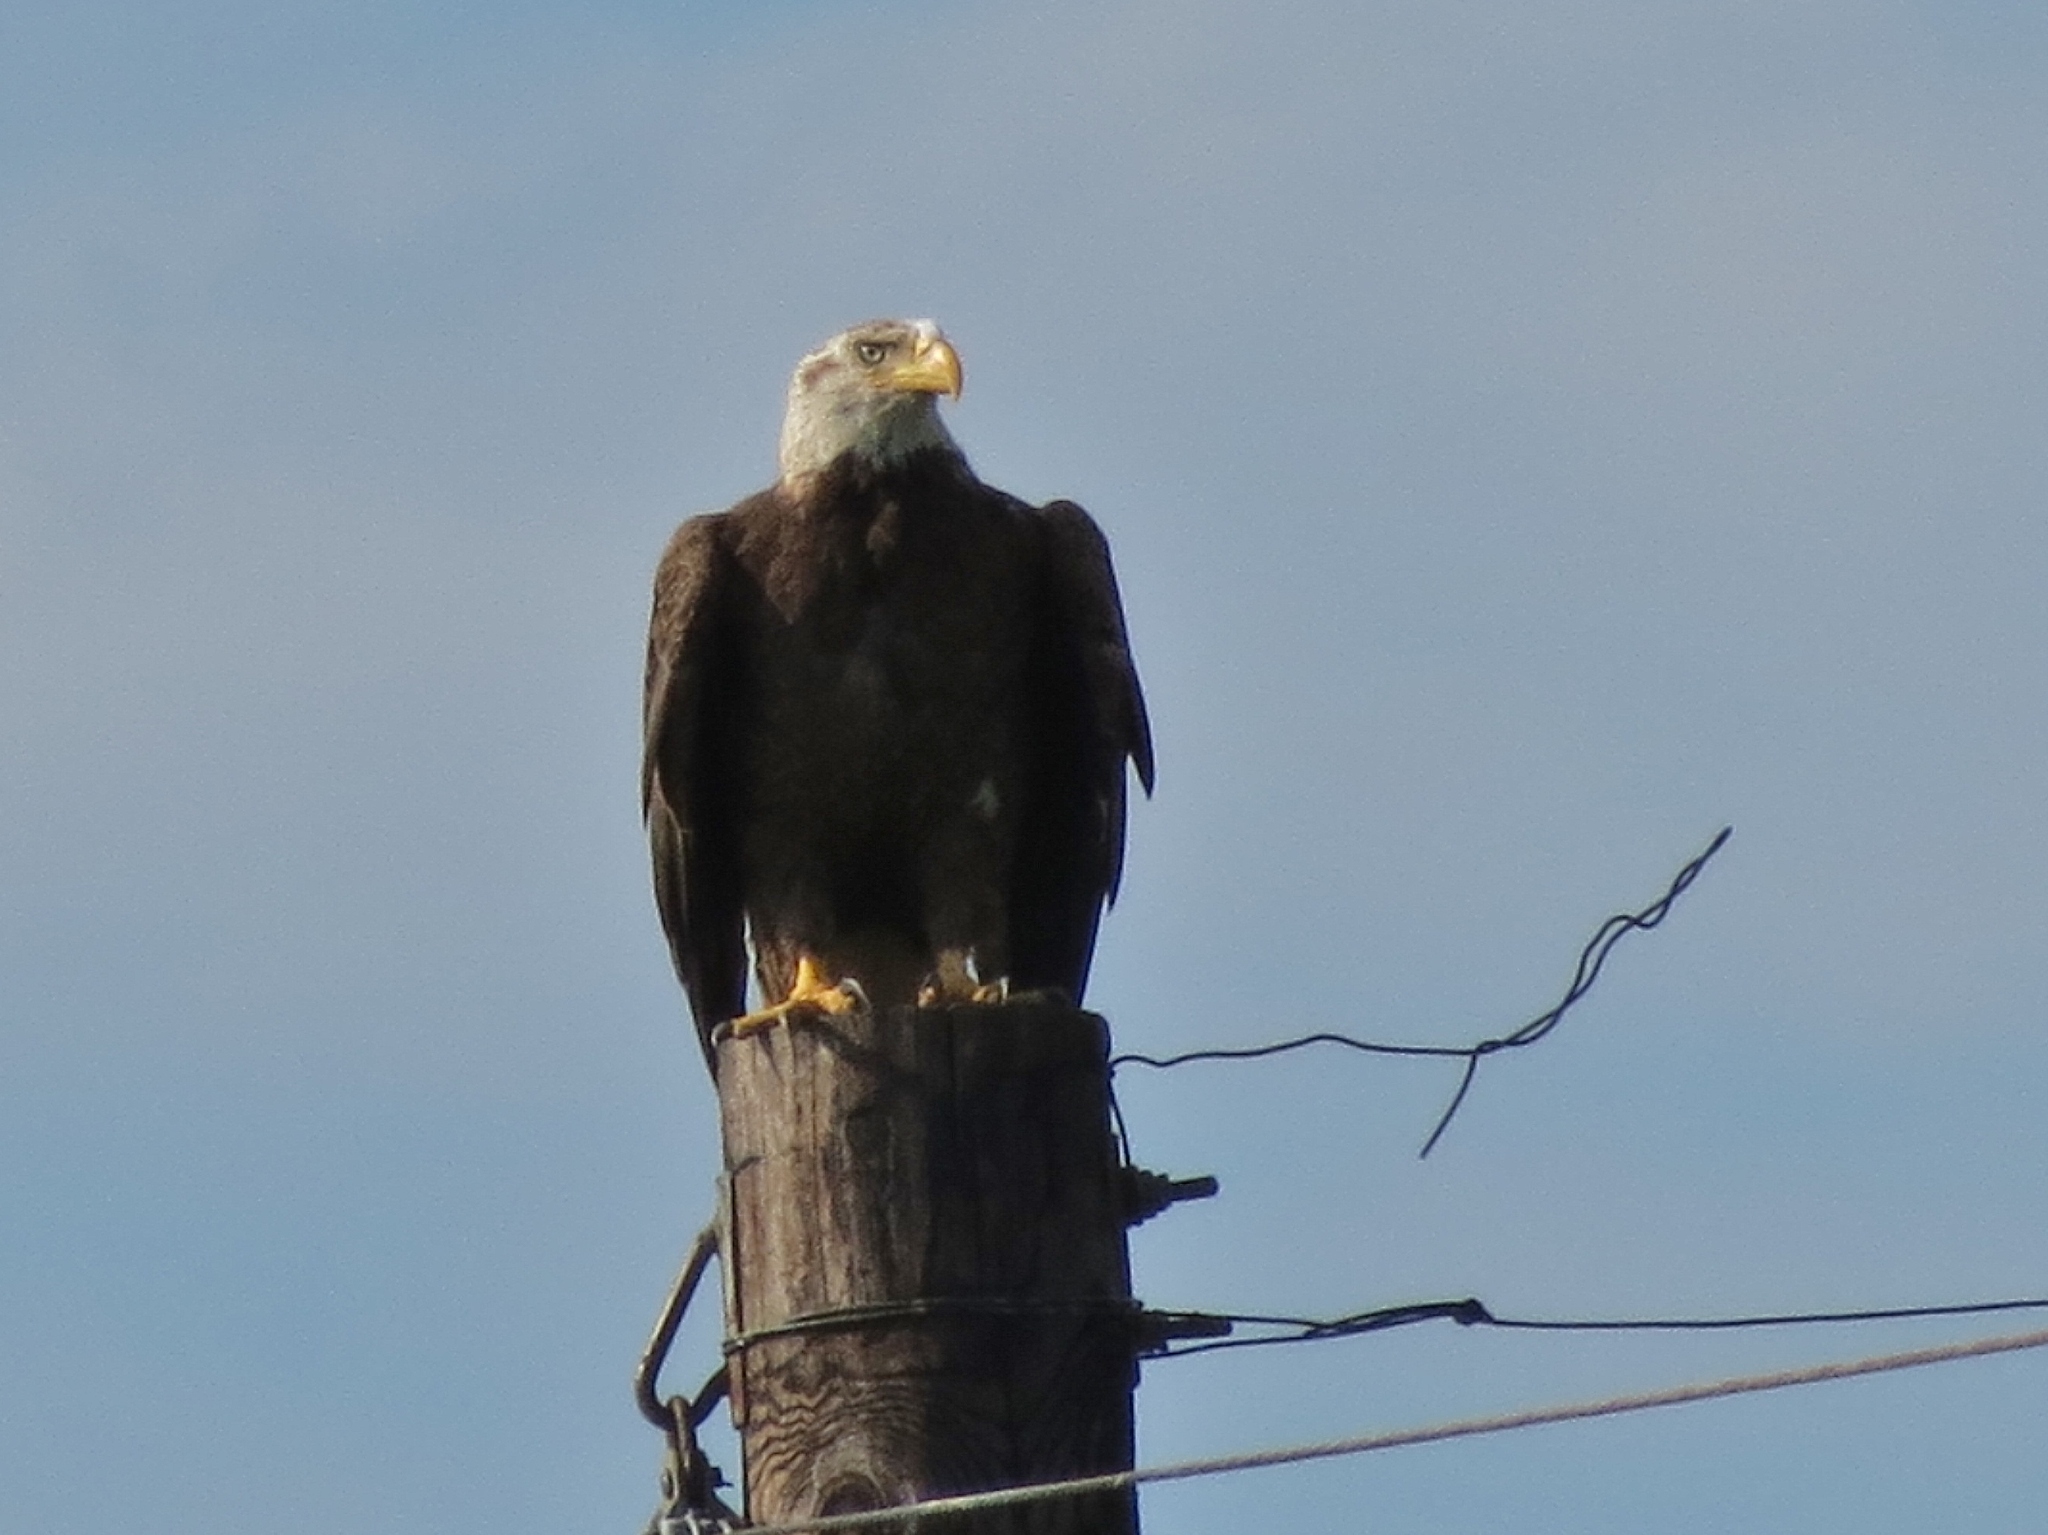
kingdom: Animalia
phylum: Chordata
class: Aves
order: Accipitriformes
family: Accipitridae
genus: Haliaeetus
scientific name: Haliaeetus leucocephalus
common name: Bald eagle
